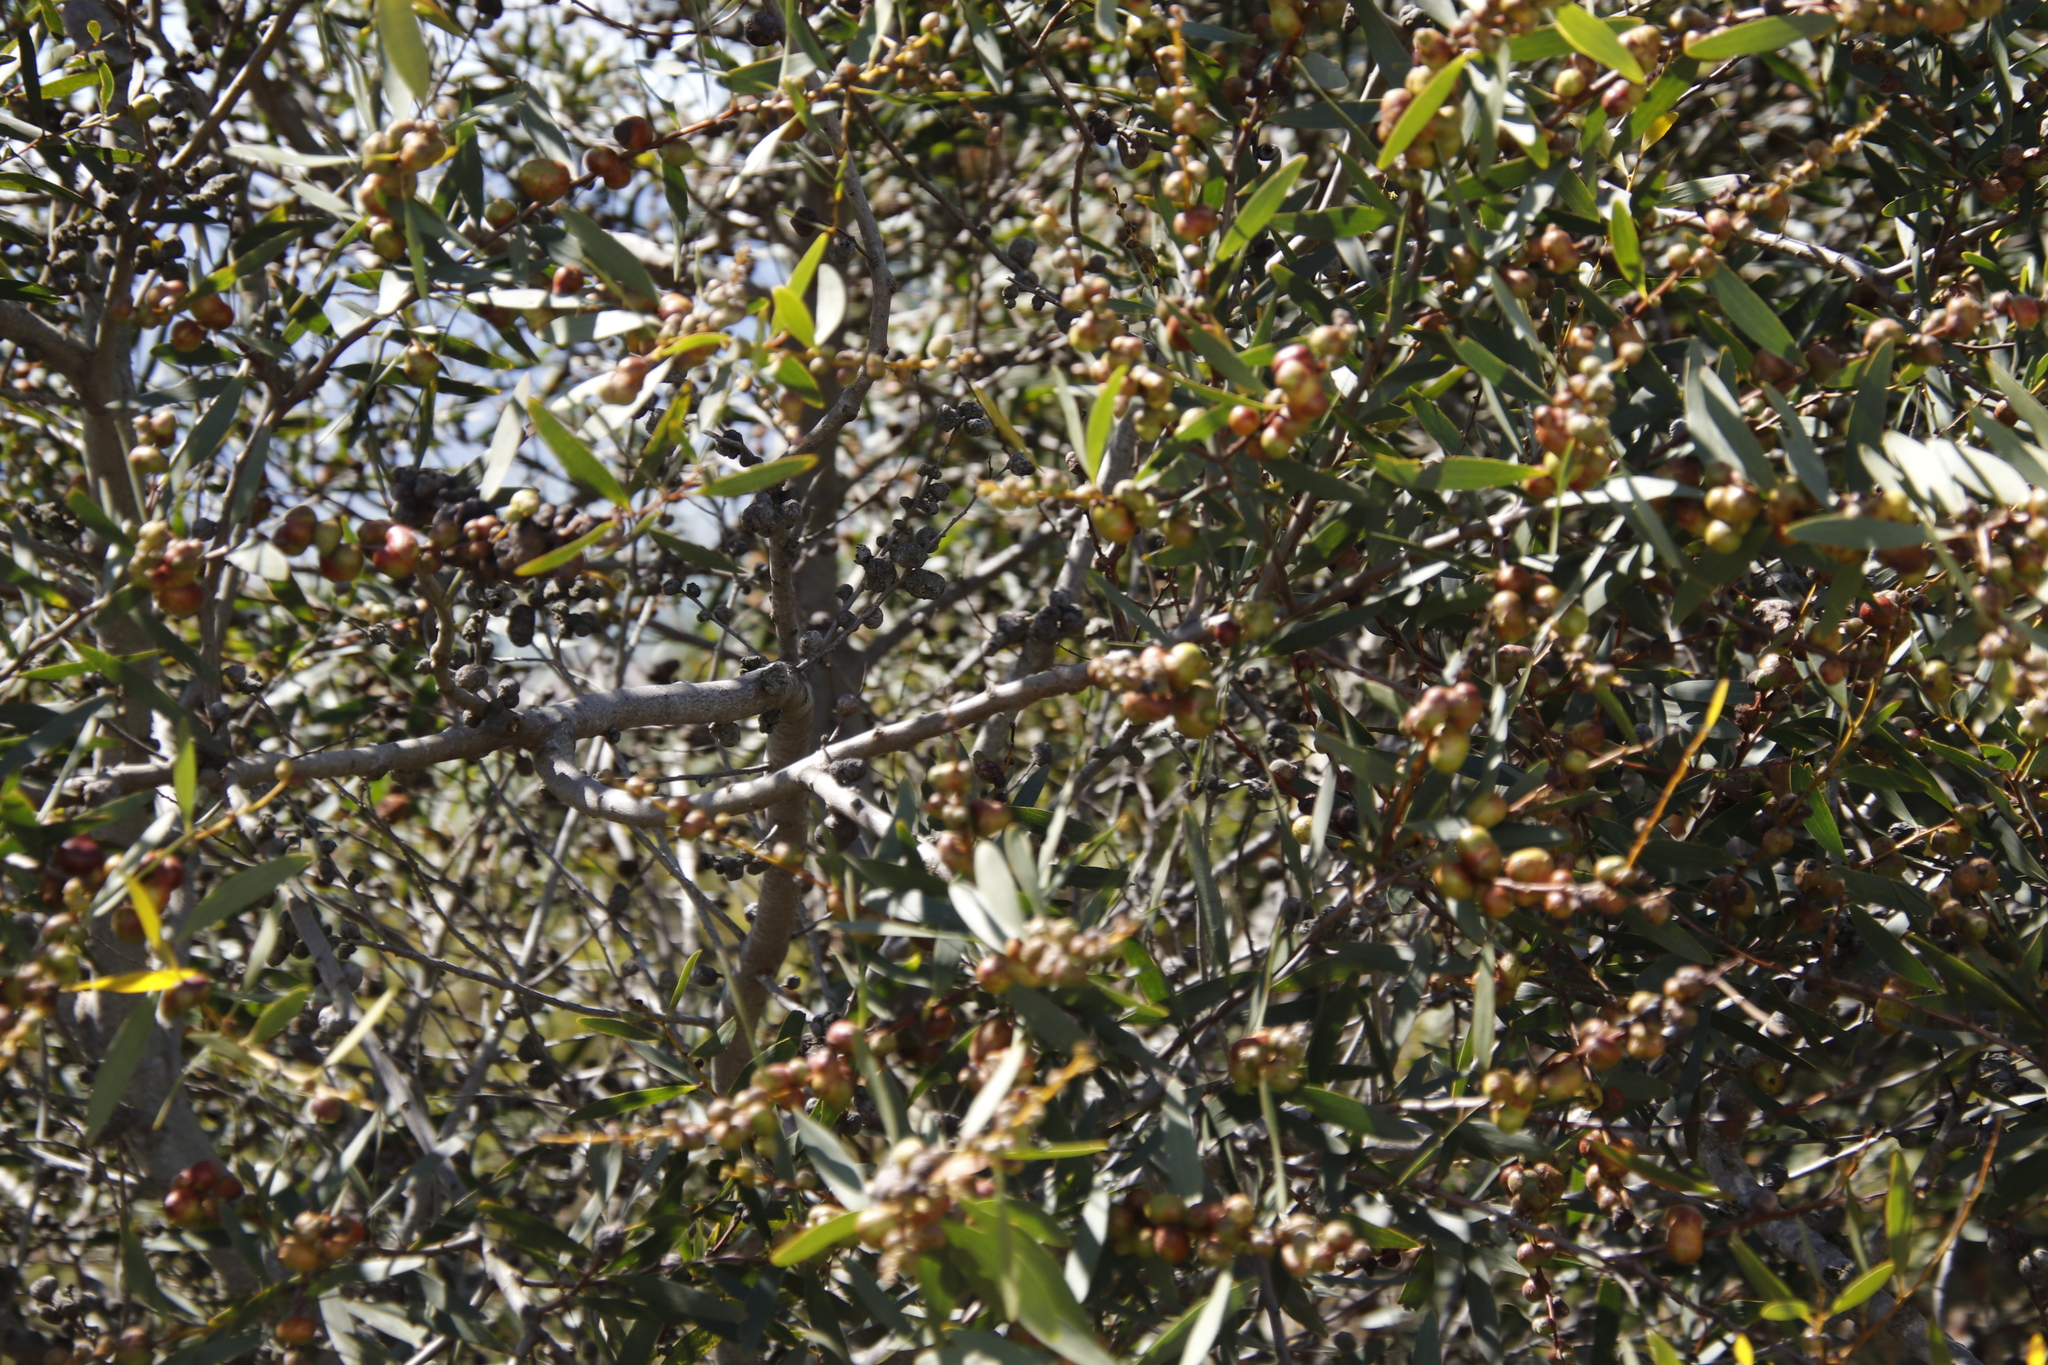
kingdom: Plantae
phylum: Tracheophyta
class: Magnoliopsida
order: Fabales
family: Fabaceae
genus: Acacia
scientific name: Acacia longifolia
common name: Sydney golden wattle
